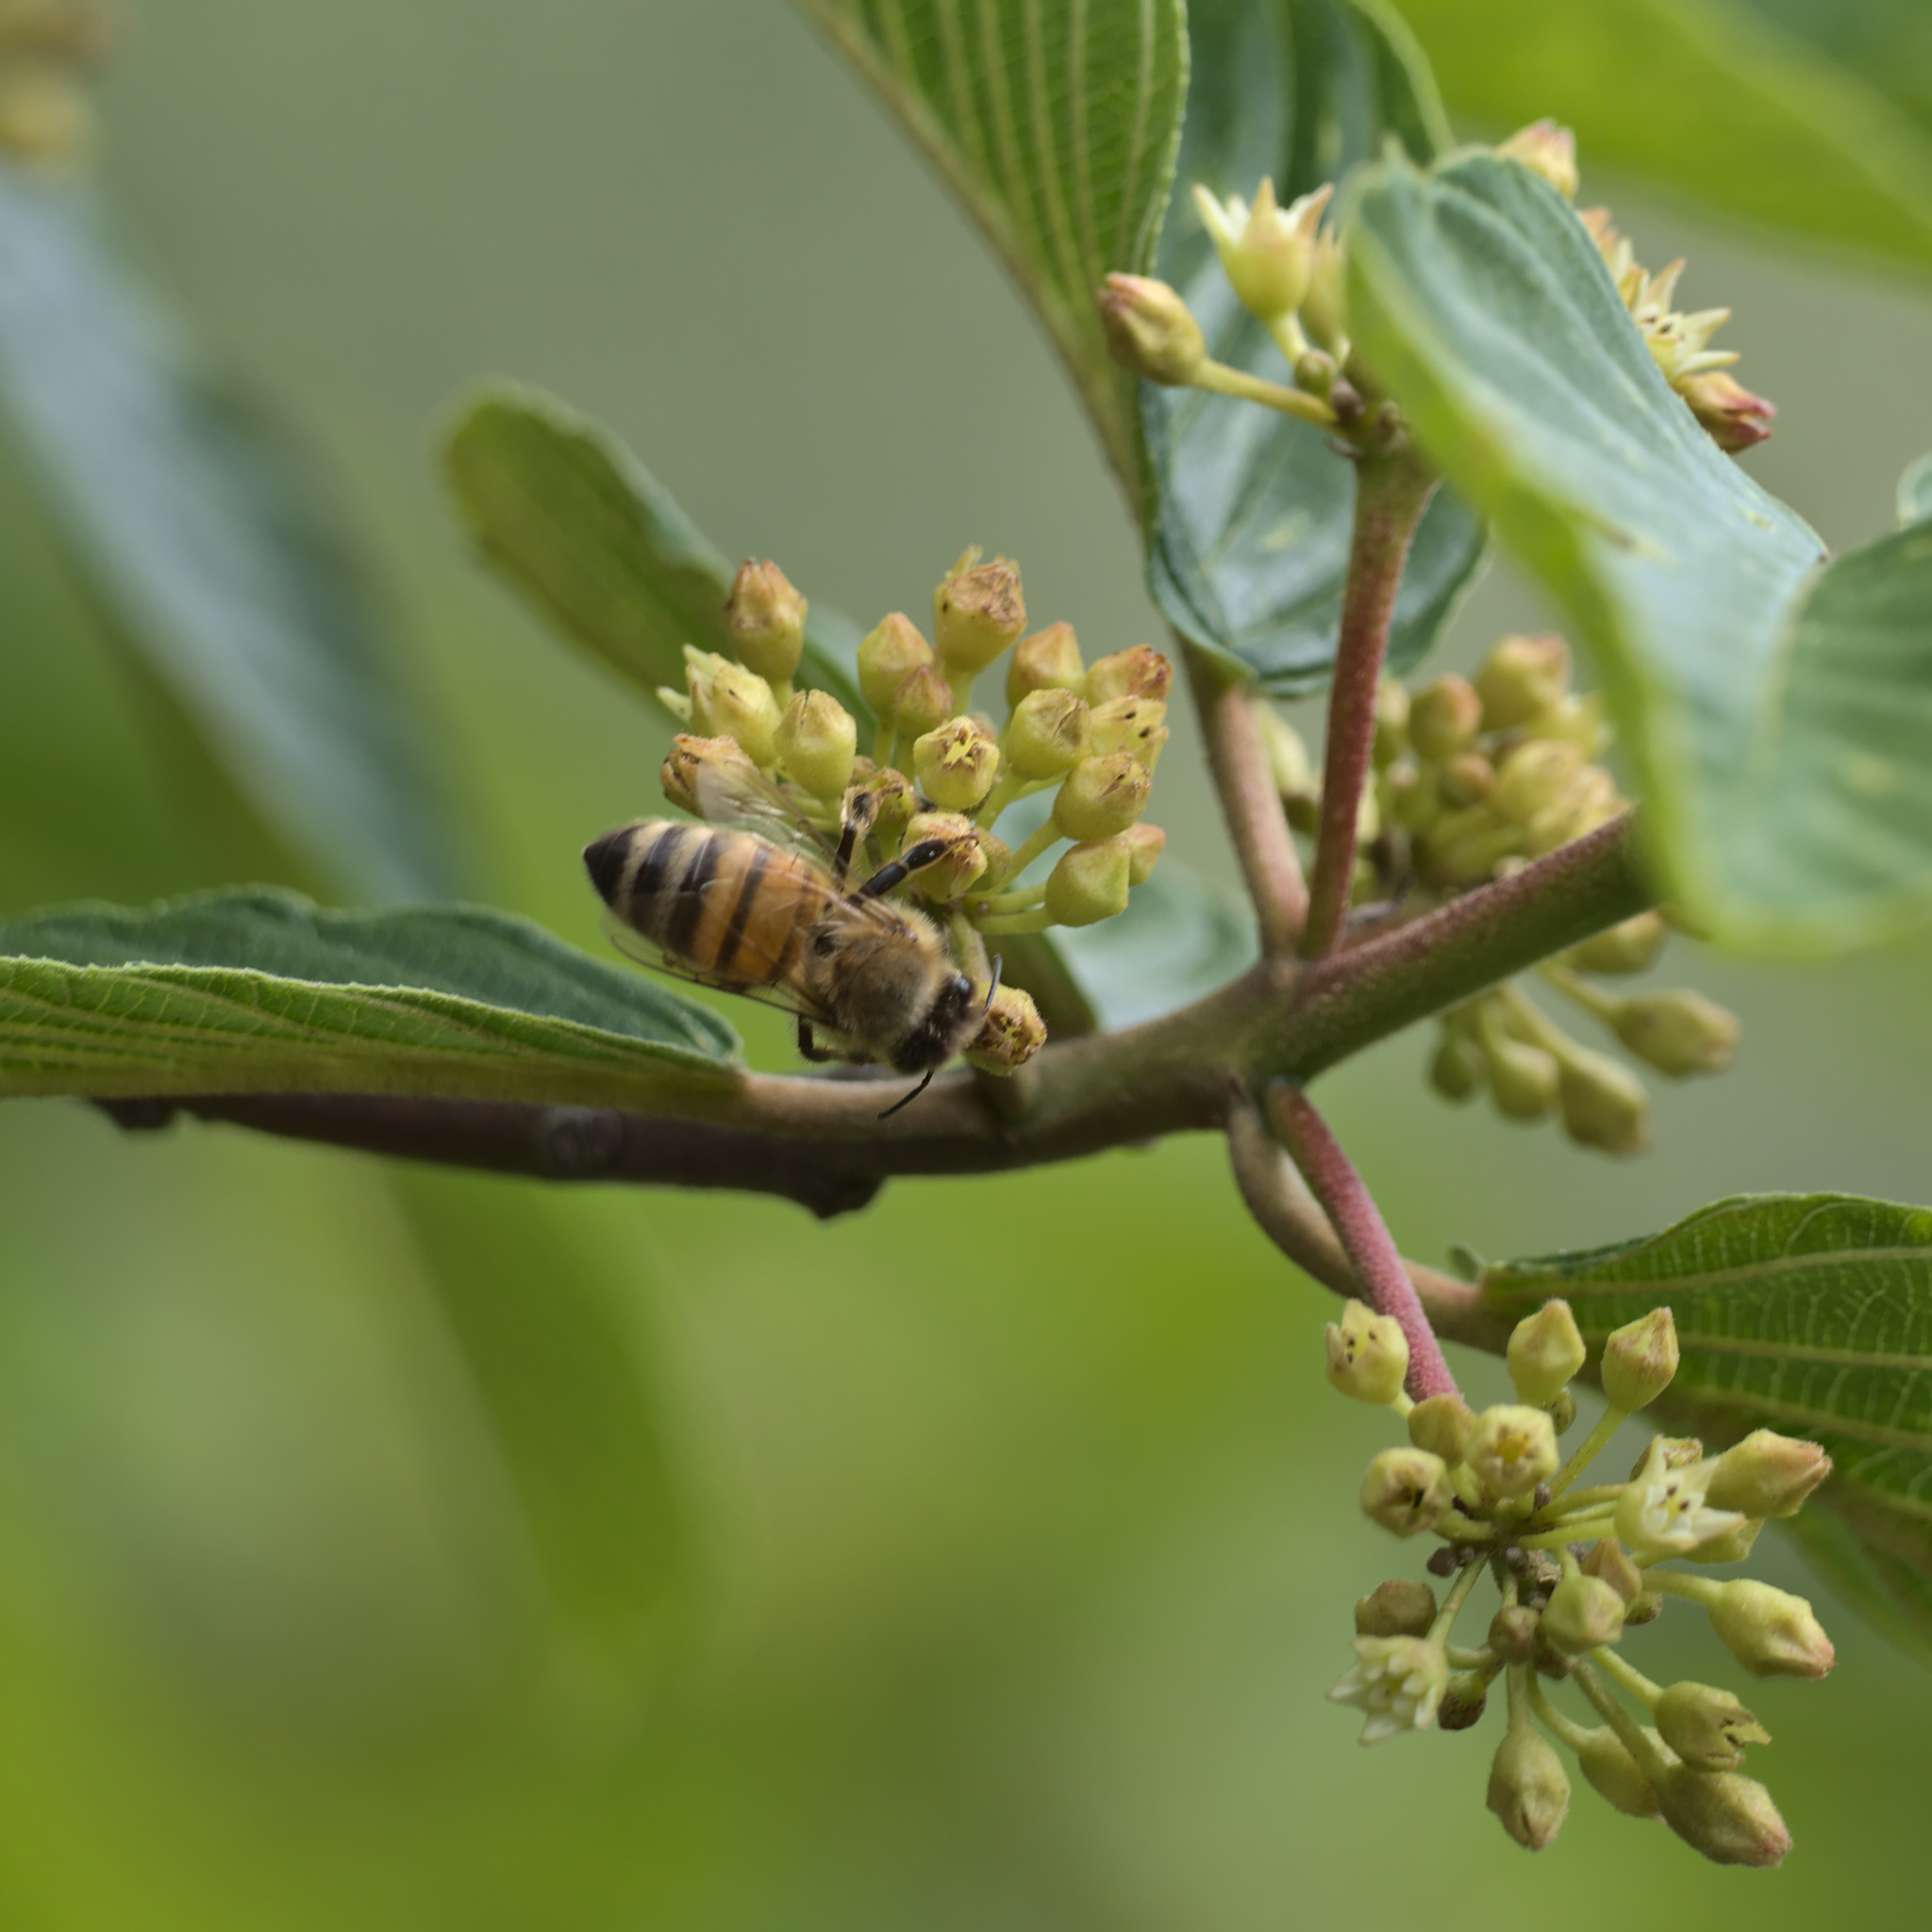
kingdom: Animalia
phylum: Arthropoda
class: Insecta
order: Hymenoptera
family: Apidae
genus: Apis
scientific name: Apis mellifera
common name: Honey bee
